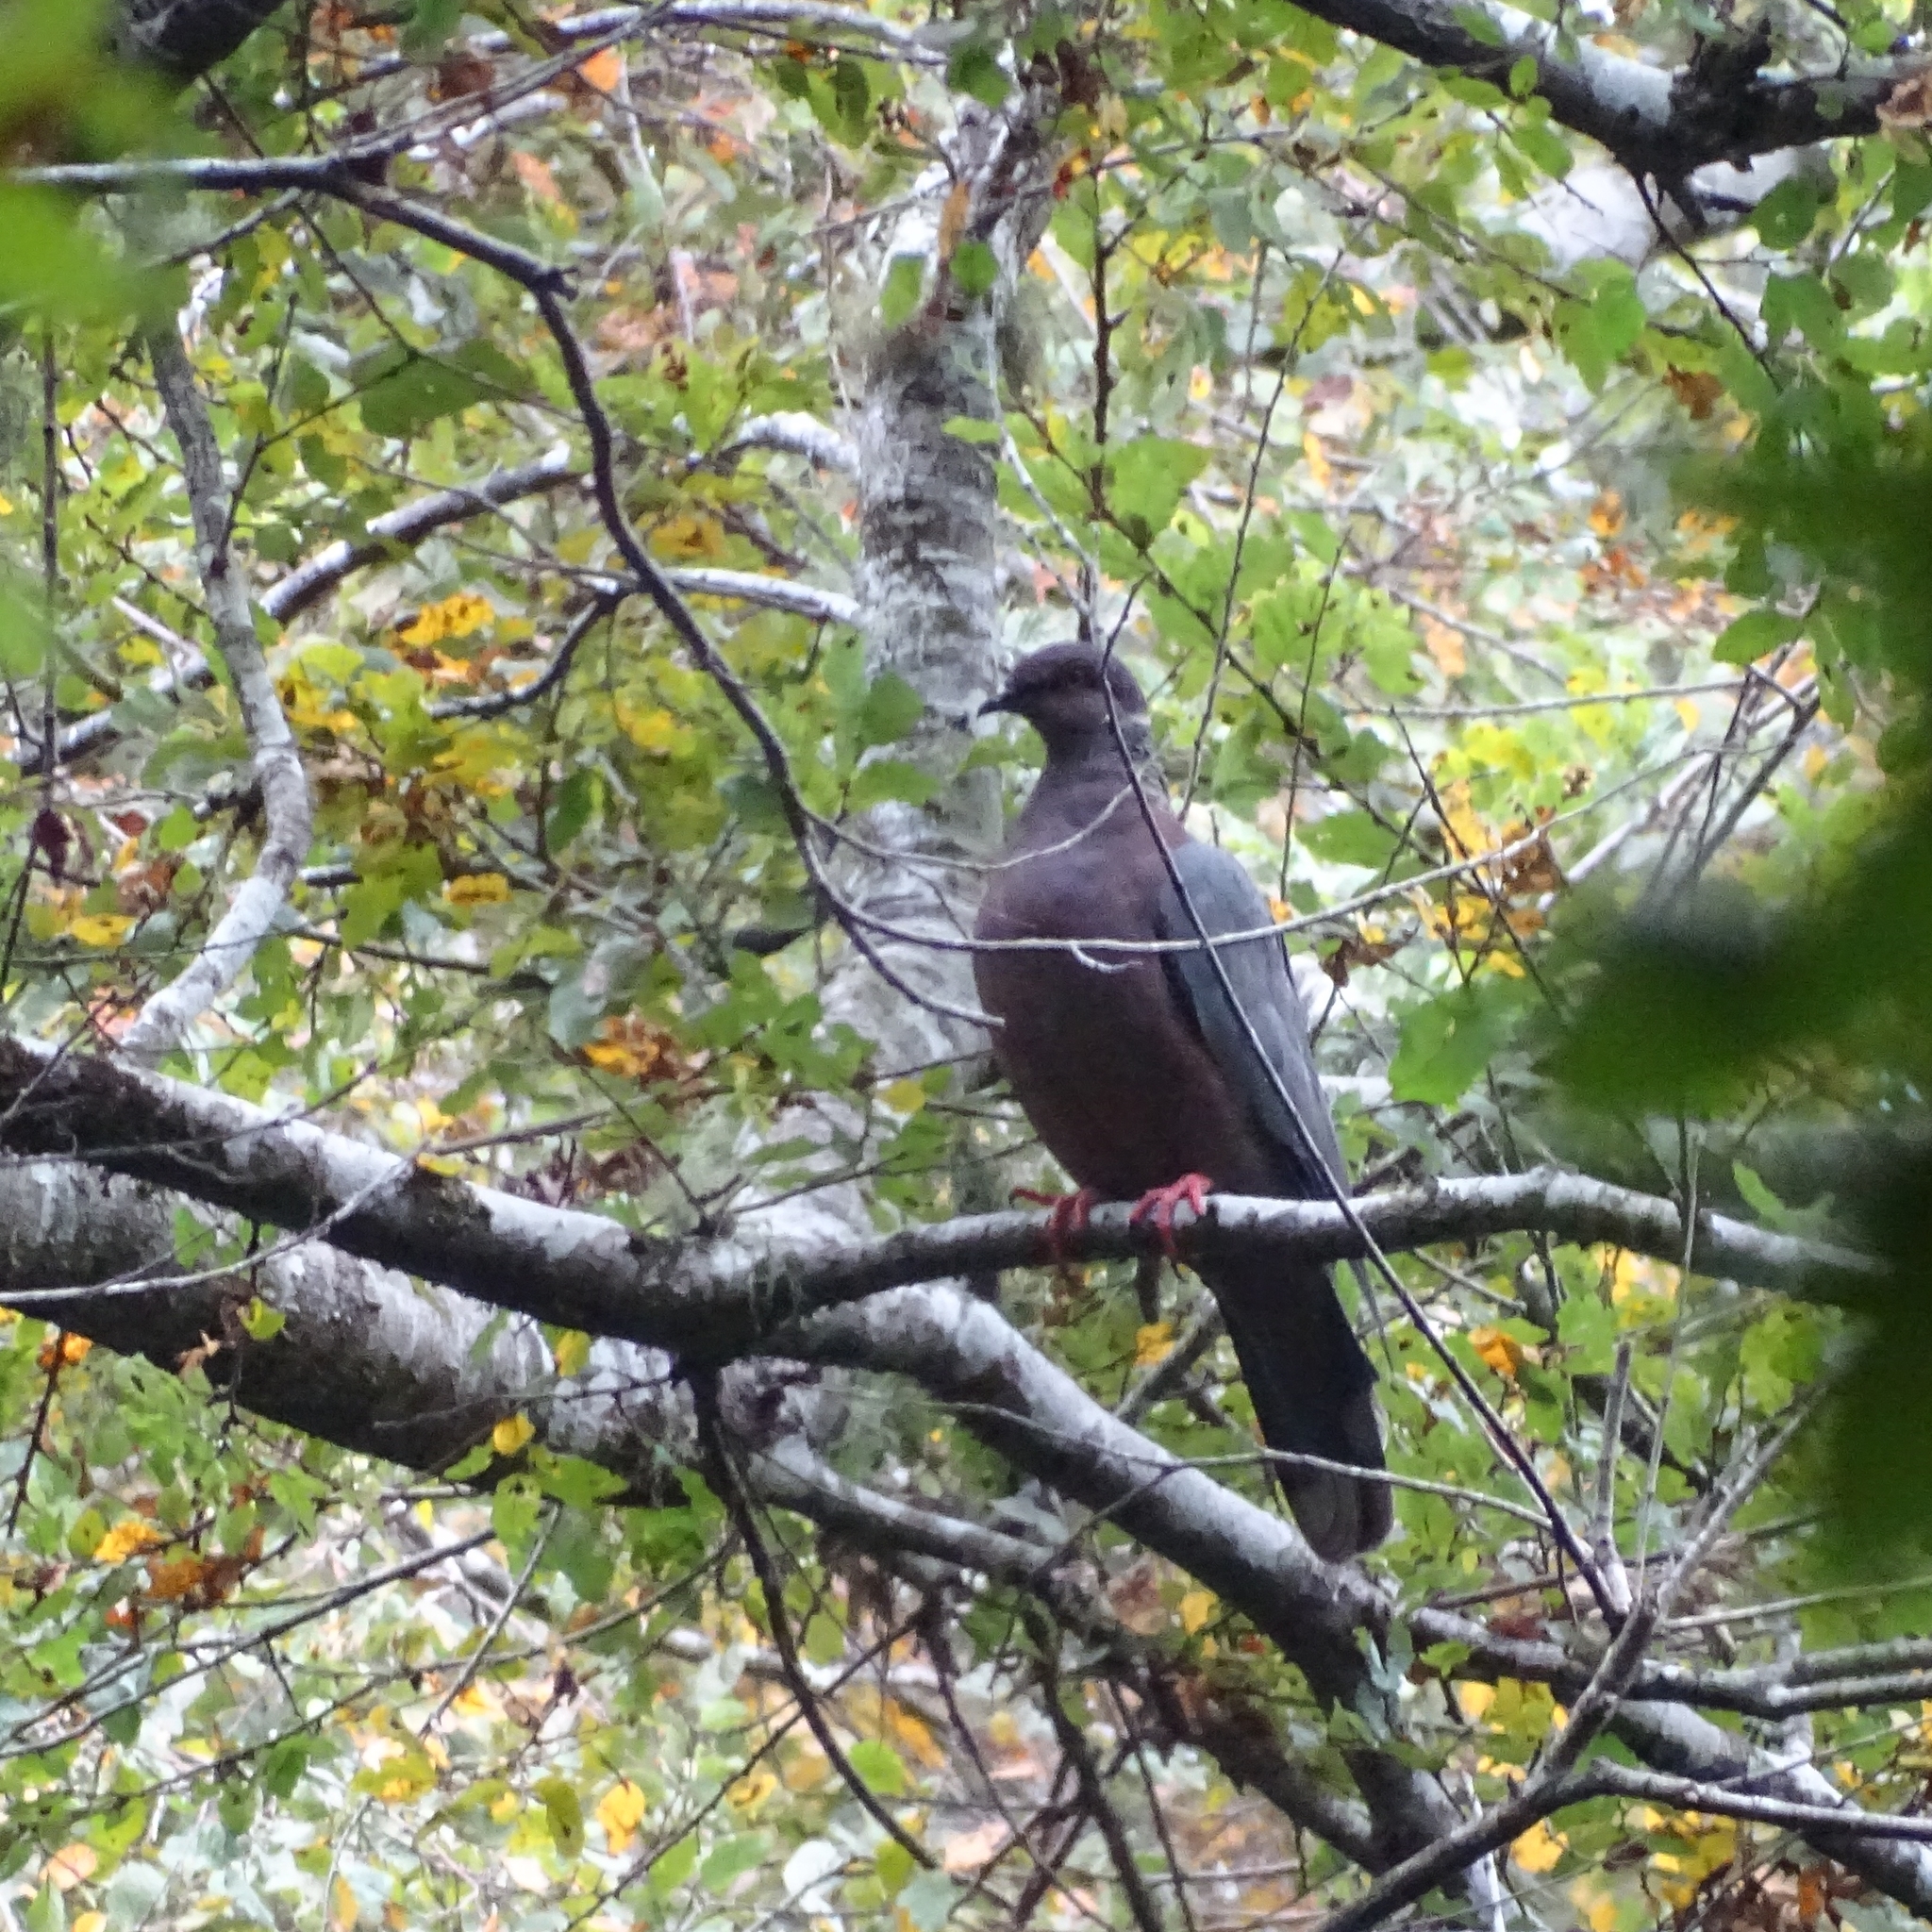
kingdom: Animalia
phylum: Chordata
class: Aves
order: Columbiformes
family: Columbidae
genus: Patagioenas
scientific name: Patagioenas araucana
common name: Chilean pigeon
